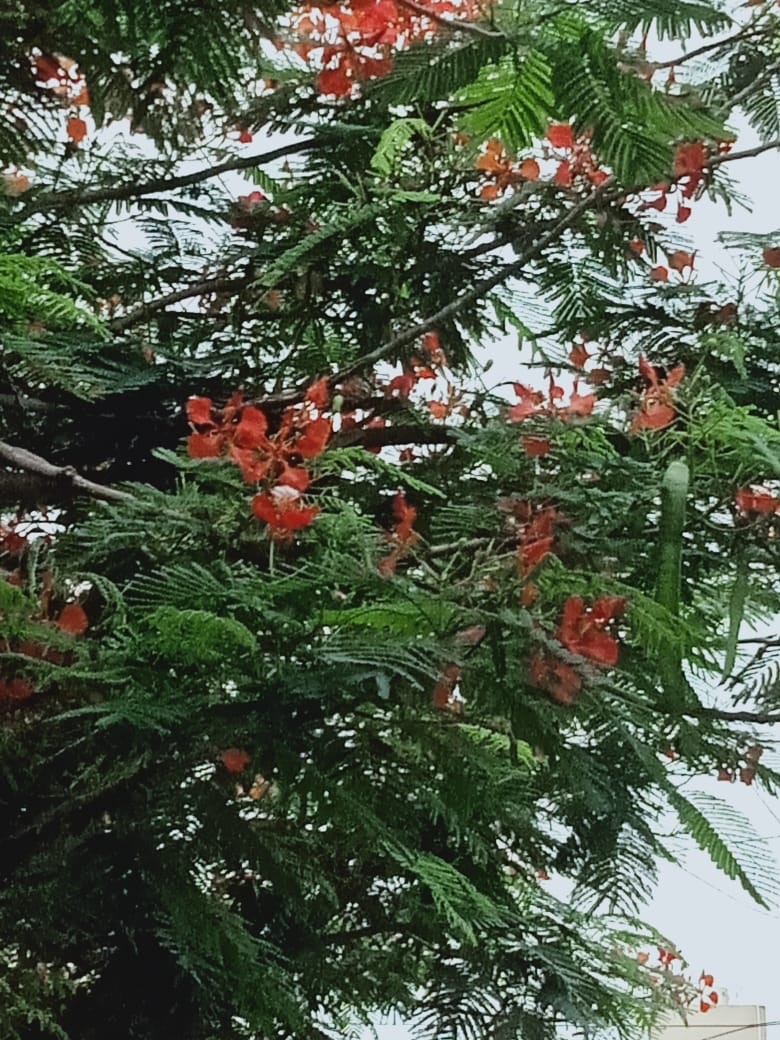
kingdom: Plantae
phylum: Tracheophyta
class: Magnoliopsida
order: Fabales
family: Fabaceae
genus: Delonix
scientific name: Delonix regia
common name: Royal poinciana
